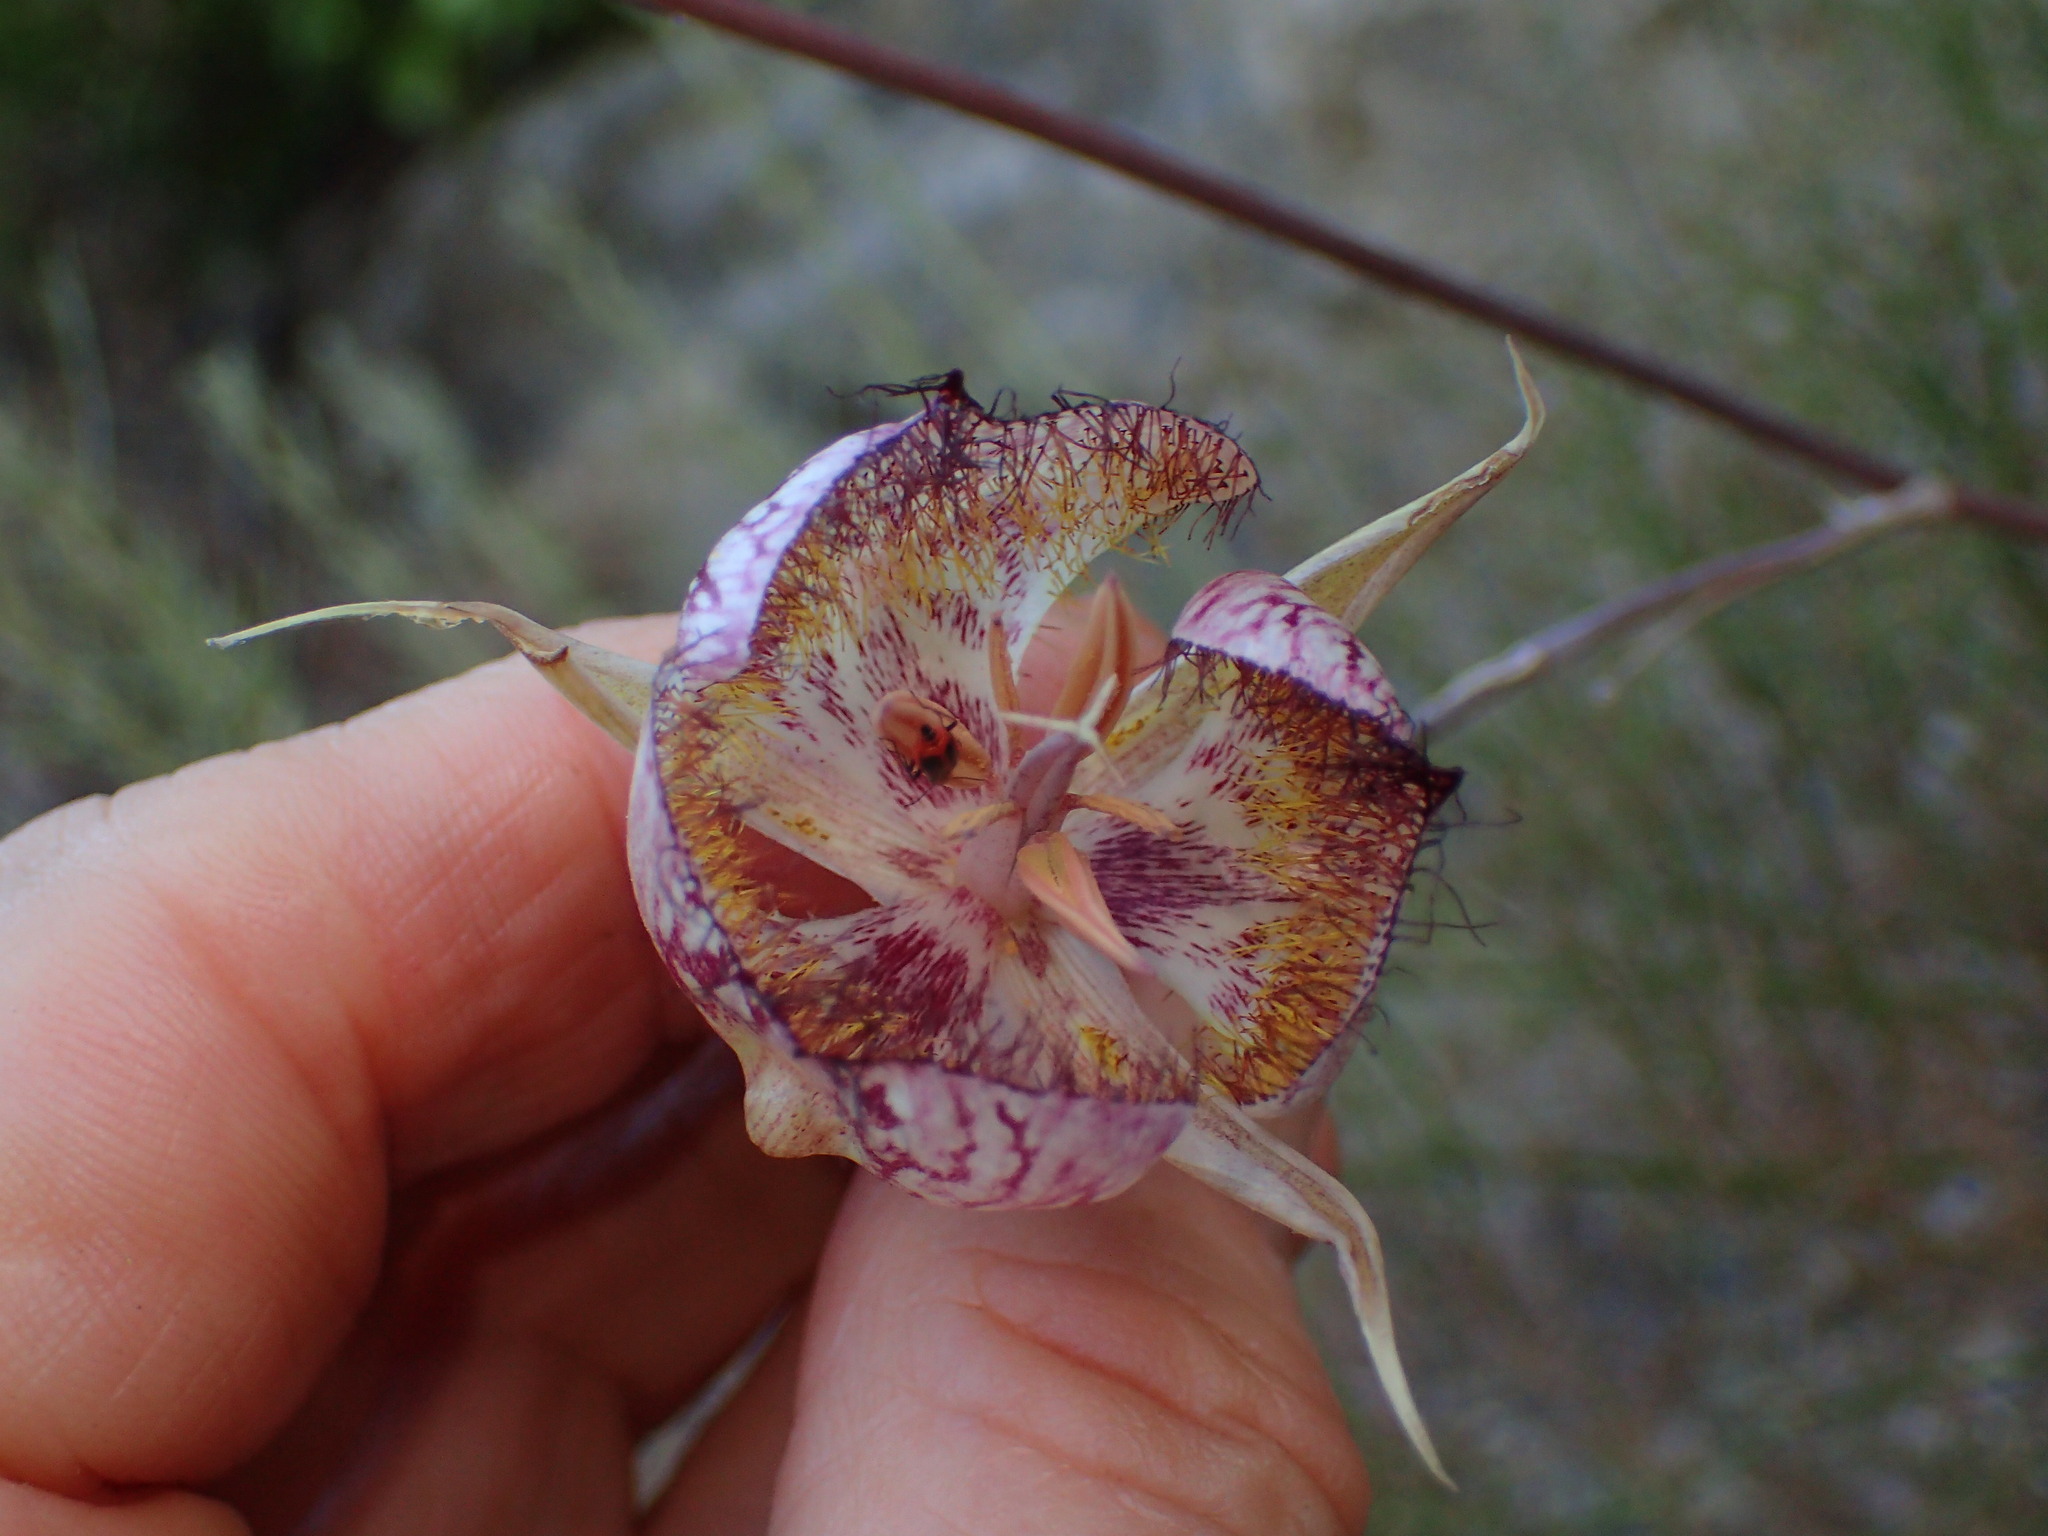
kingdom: Plantae
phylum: Tracheophyta
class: Liliopsida
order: Liliales
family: Liliaceae
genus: Calochortus
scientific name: Calochortus fimbriatus
